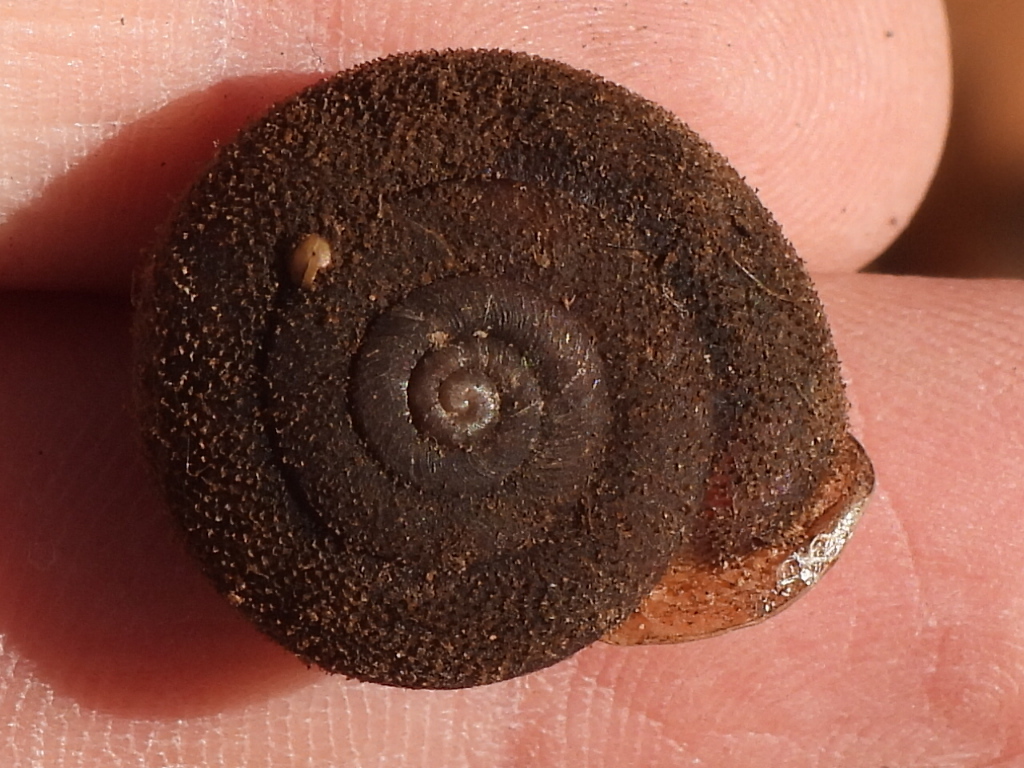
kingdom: Animalia
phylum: Mollusca
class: Gastropoda
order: Stylommatophora
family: Polygyridae
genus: Xolotrema
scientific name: Xolotrema fosteri
